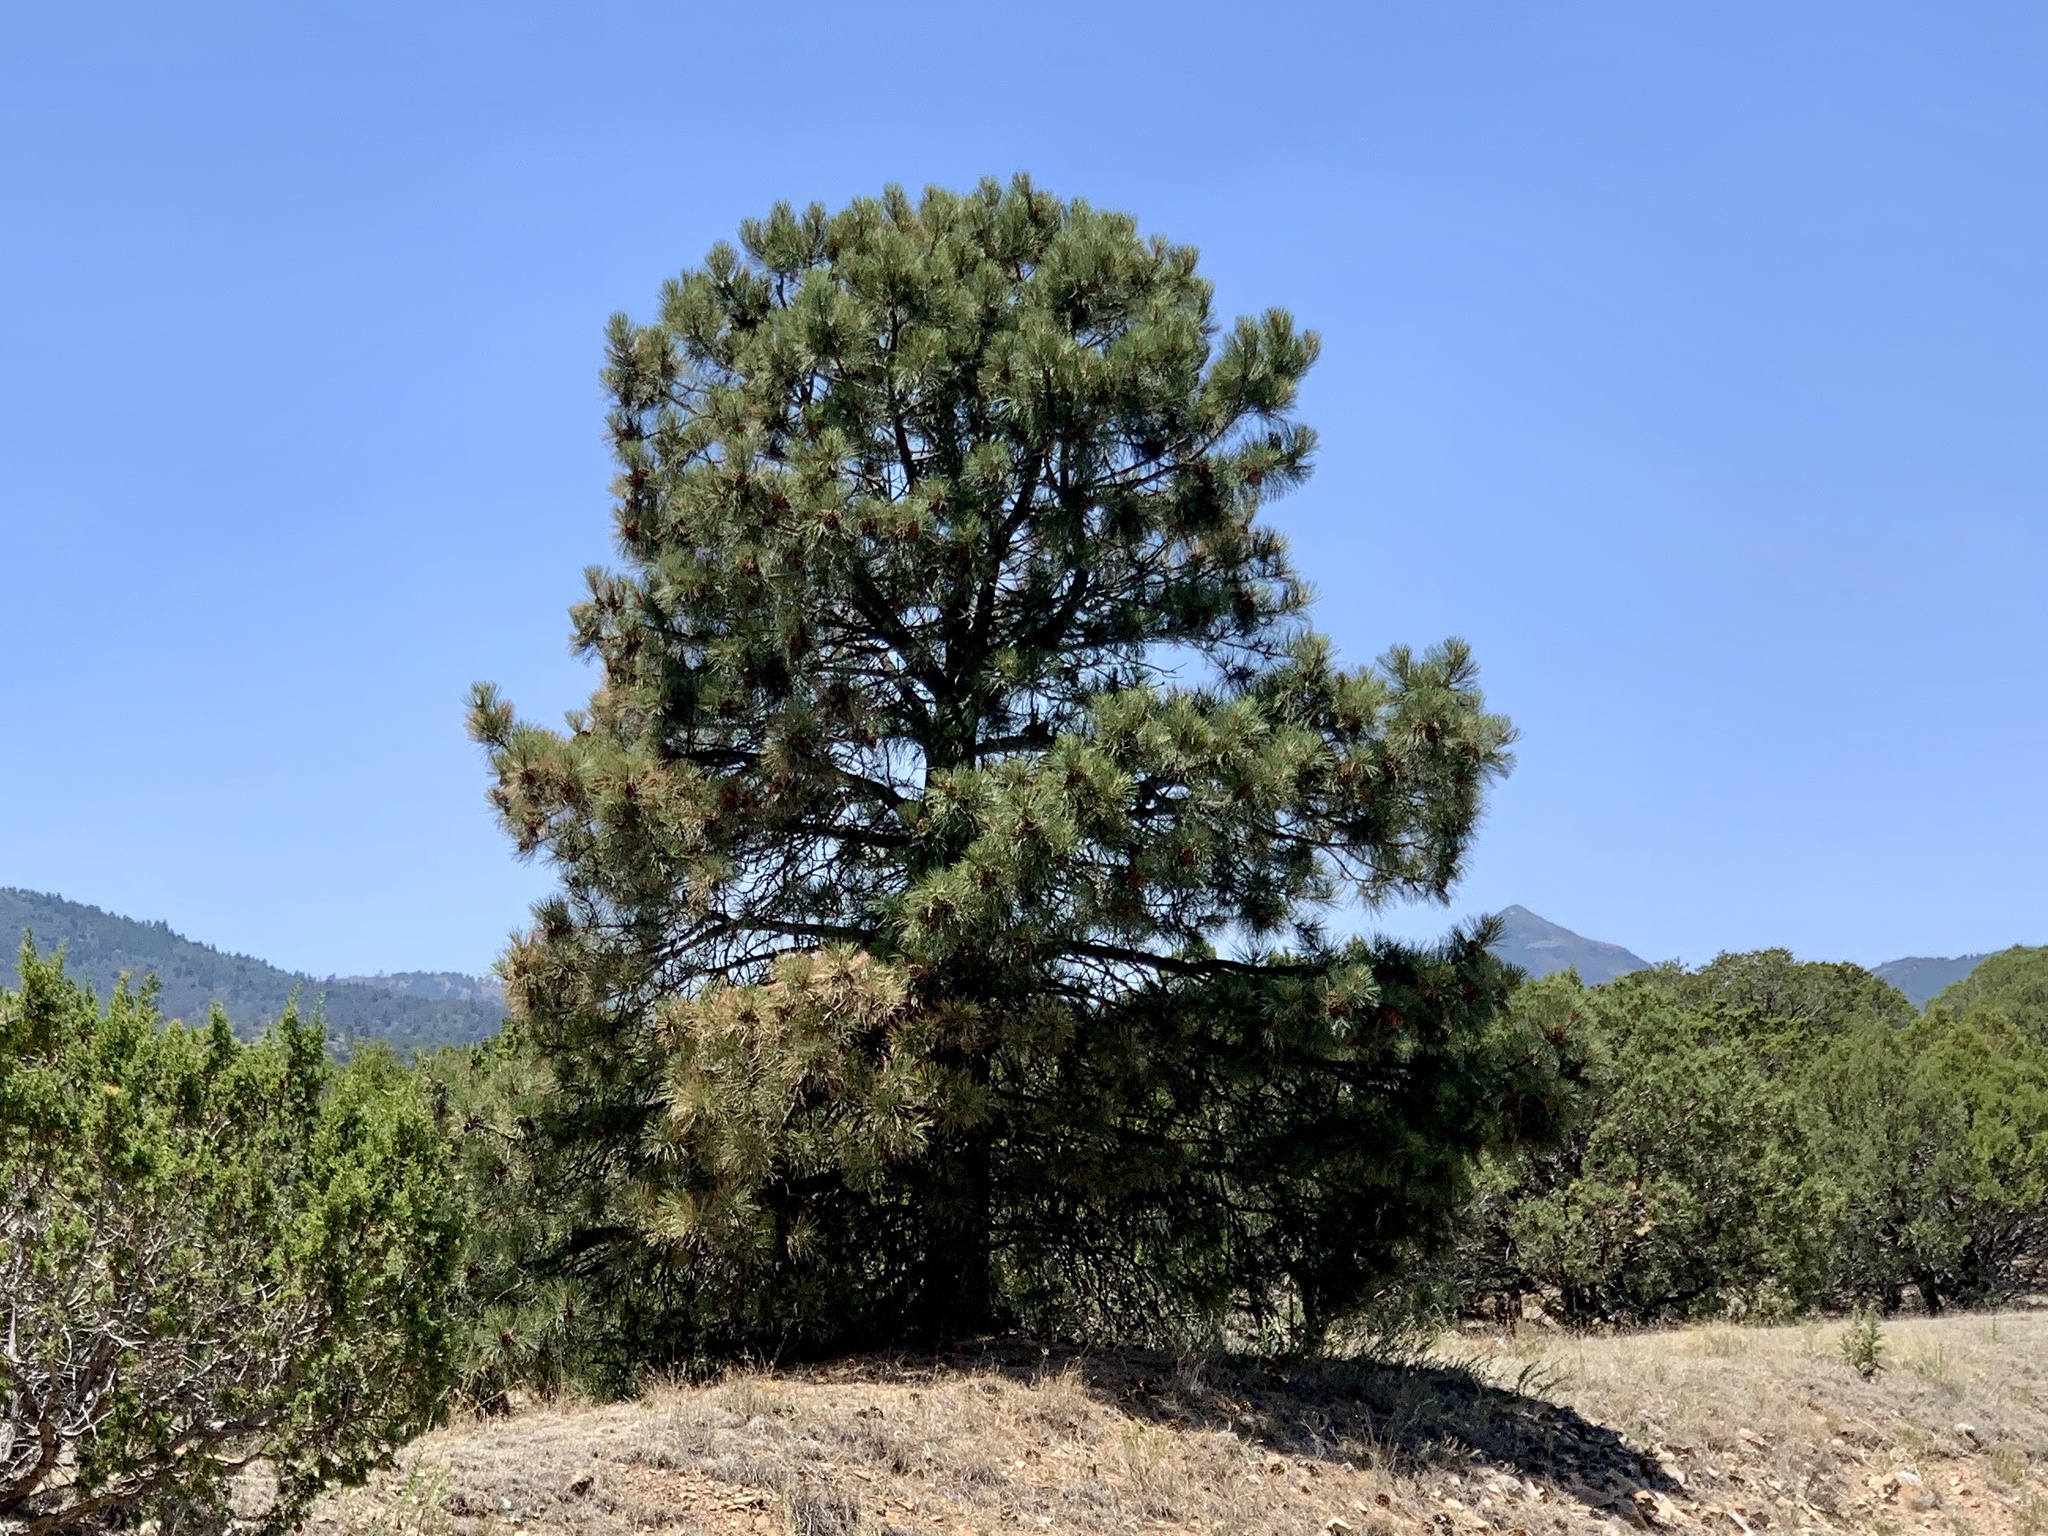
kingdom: Plantae
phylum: Tracheophyta
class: Pinopsida
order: Pinales
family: Pinaceae
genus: Pinus
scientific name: Pinus ponderosa
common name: Western yellow-pine
